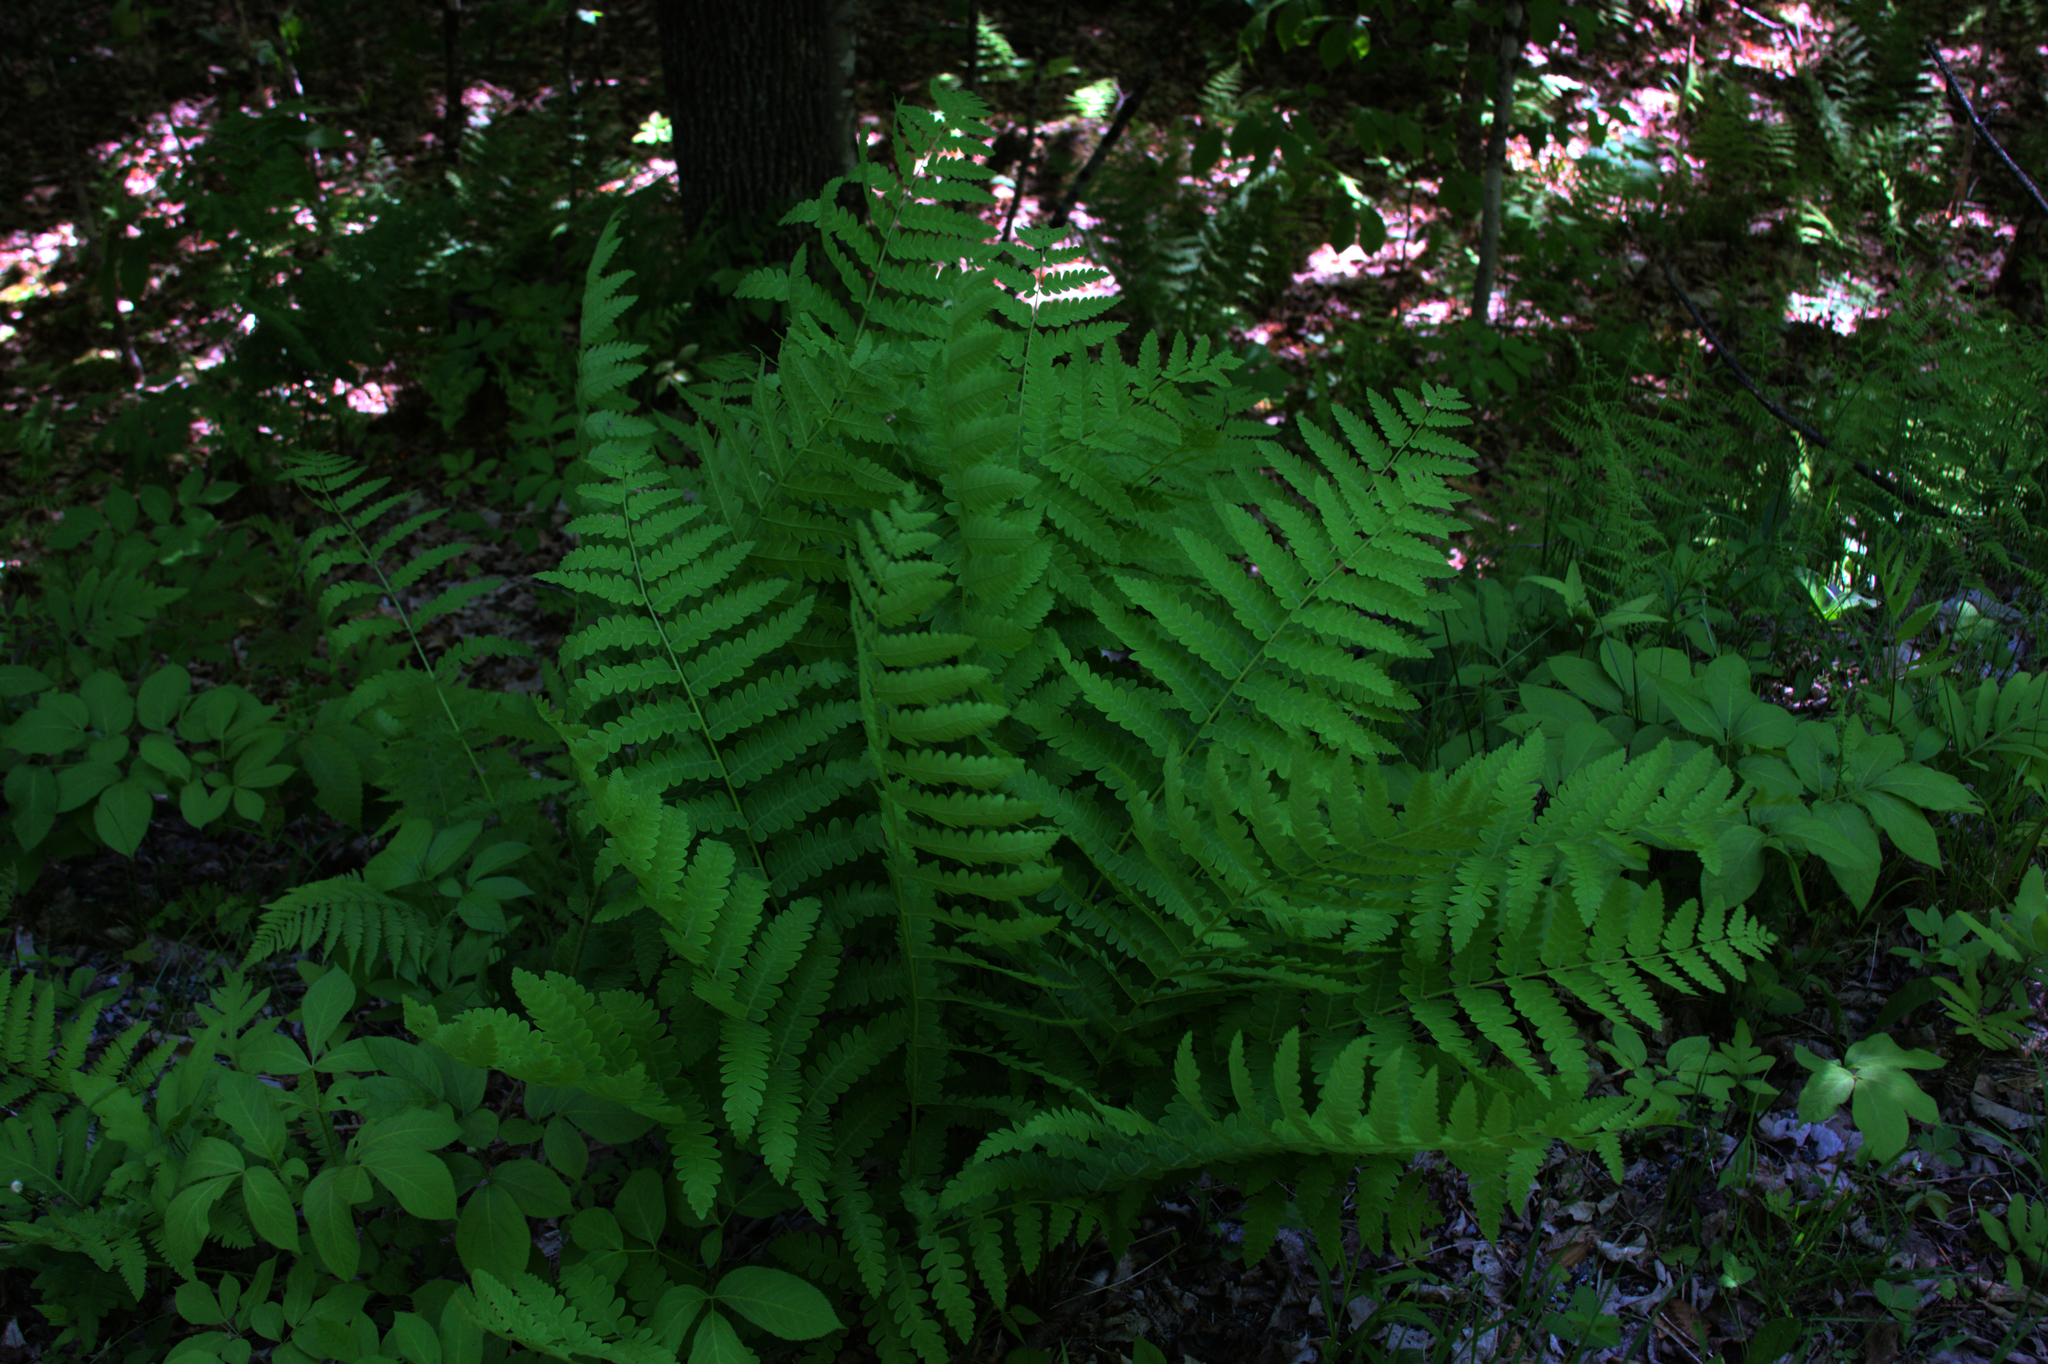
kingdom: Plantae
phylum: Tracheophyta
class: Polypodiopsida
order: Osmundales
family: Osmundaceae
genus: Claytosmunda
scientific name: Claytosmunda claytoniana
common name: Clayton's fern
